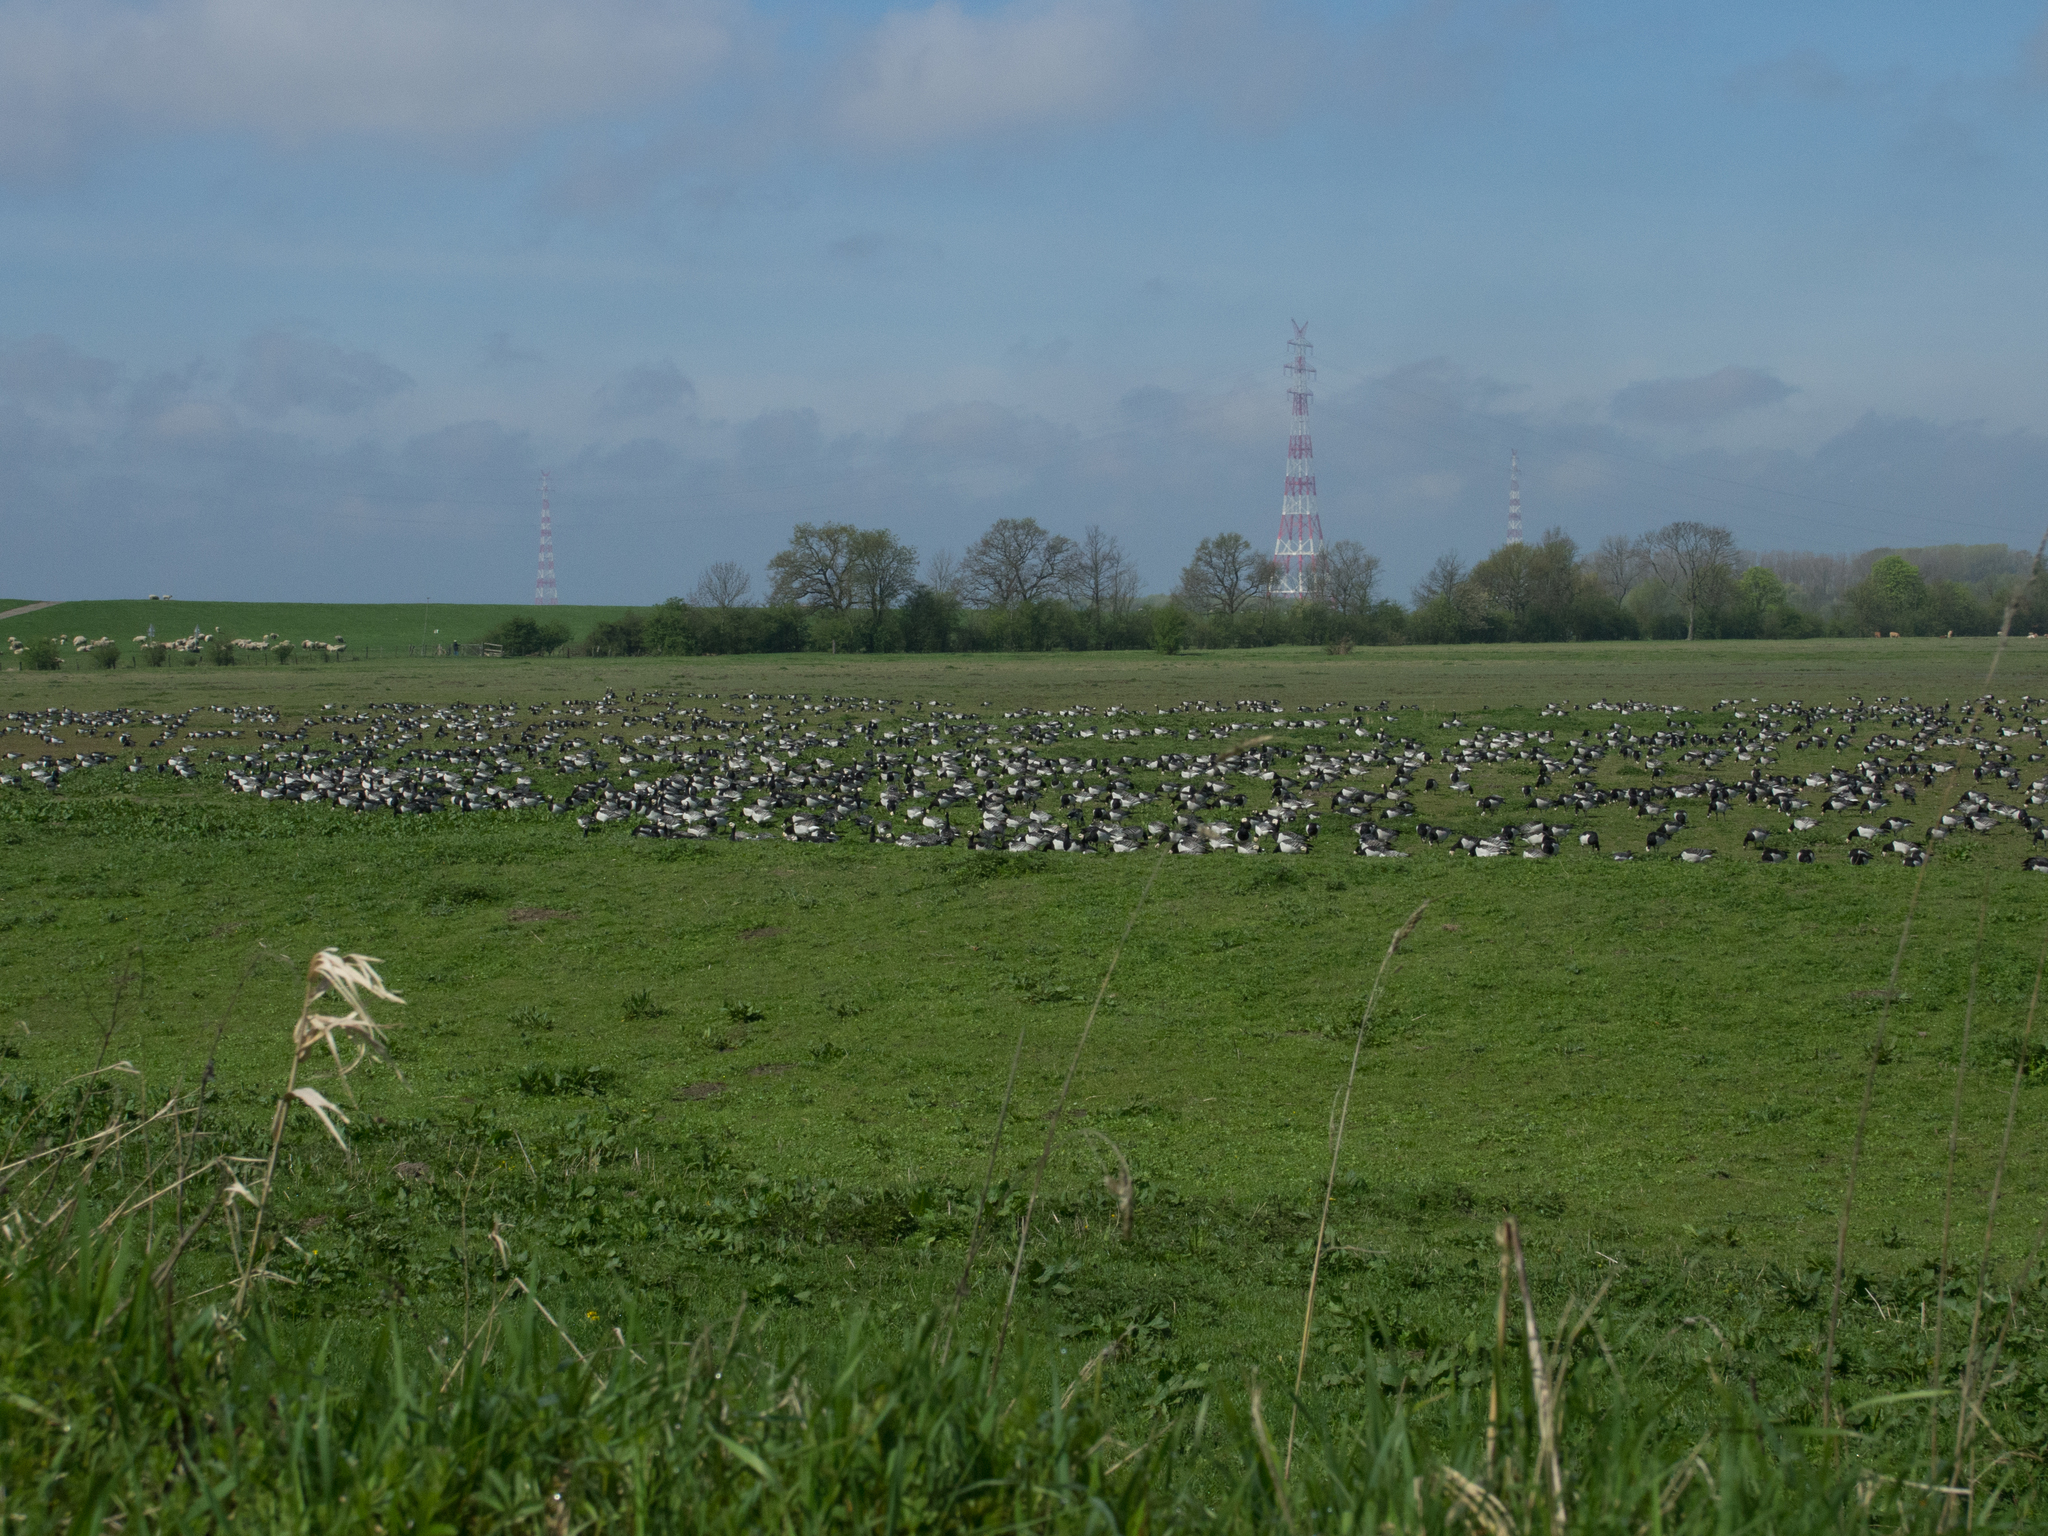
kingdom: Animalia
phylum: Chordata
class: Aves
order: Anseriformes
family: Anatidae
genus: Branta
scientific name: Branta leucopsis
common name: Barnacle goose
